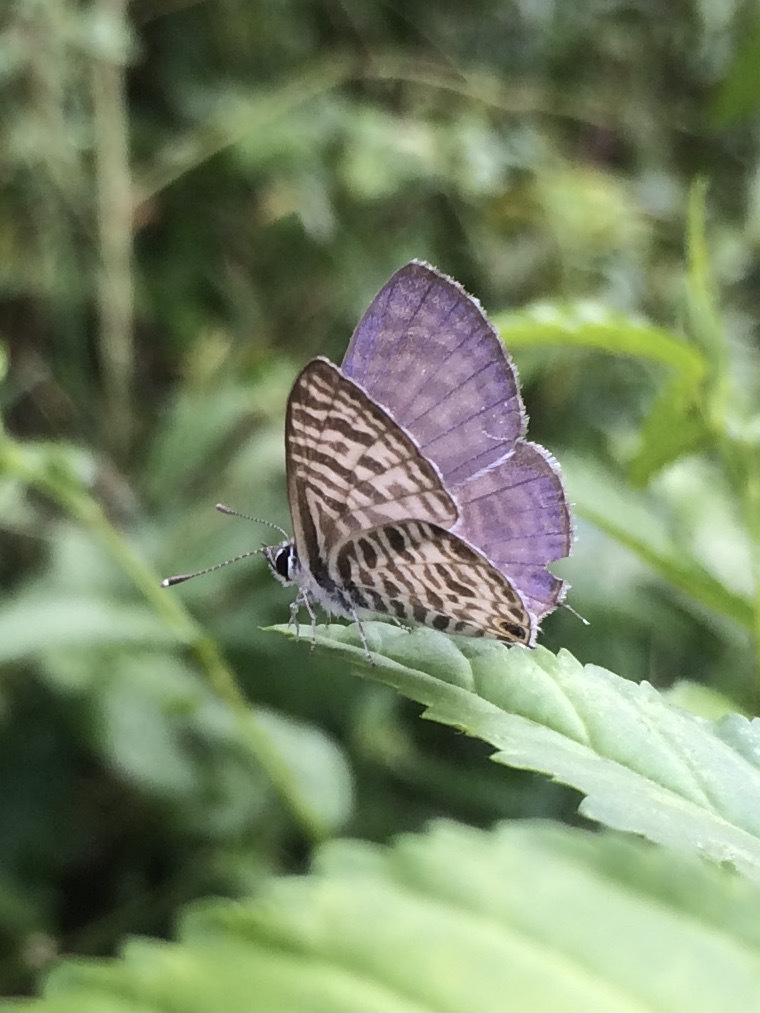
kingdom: Animalia
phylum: Arthropoda
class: Insecta
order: Lepidoptera
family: Lycaenidae
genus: Leptotes
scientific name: Leptotes plinius
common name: Zebra blue
